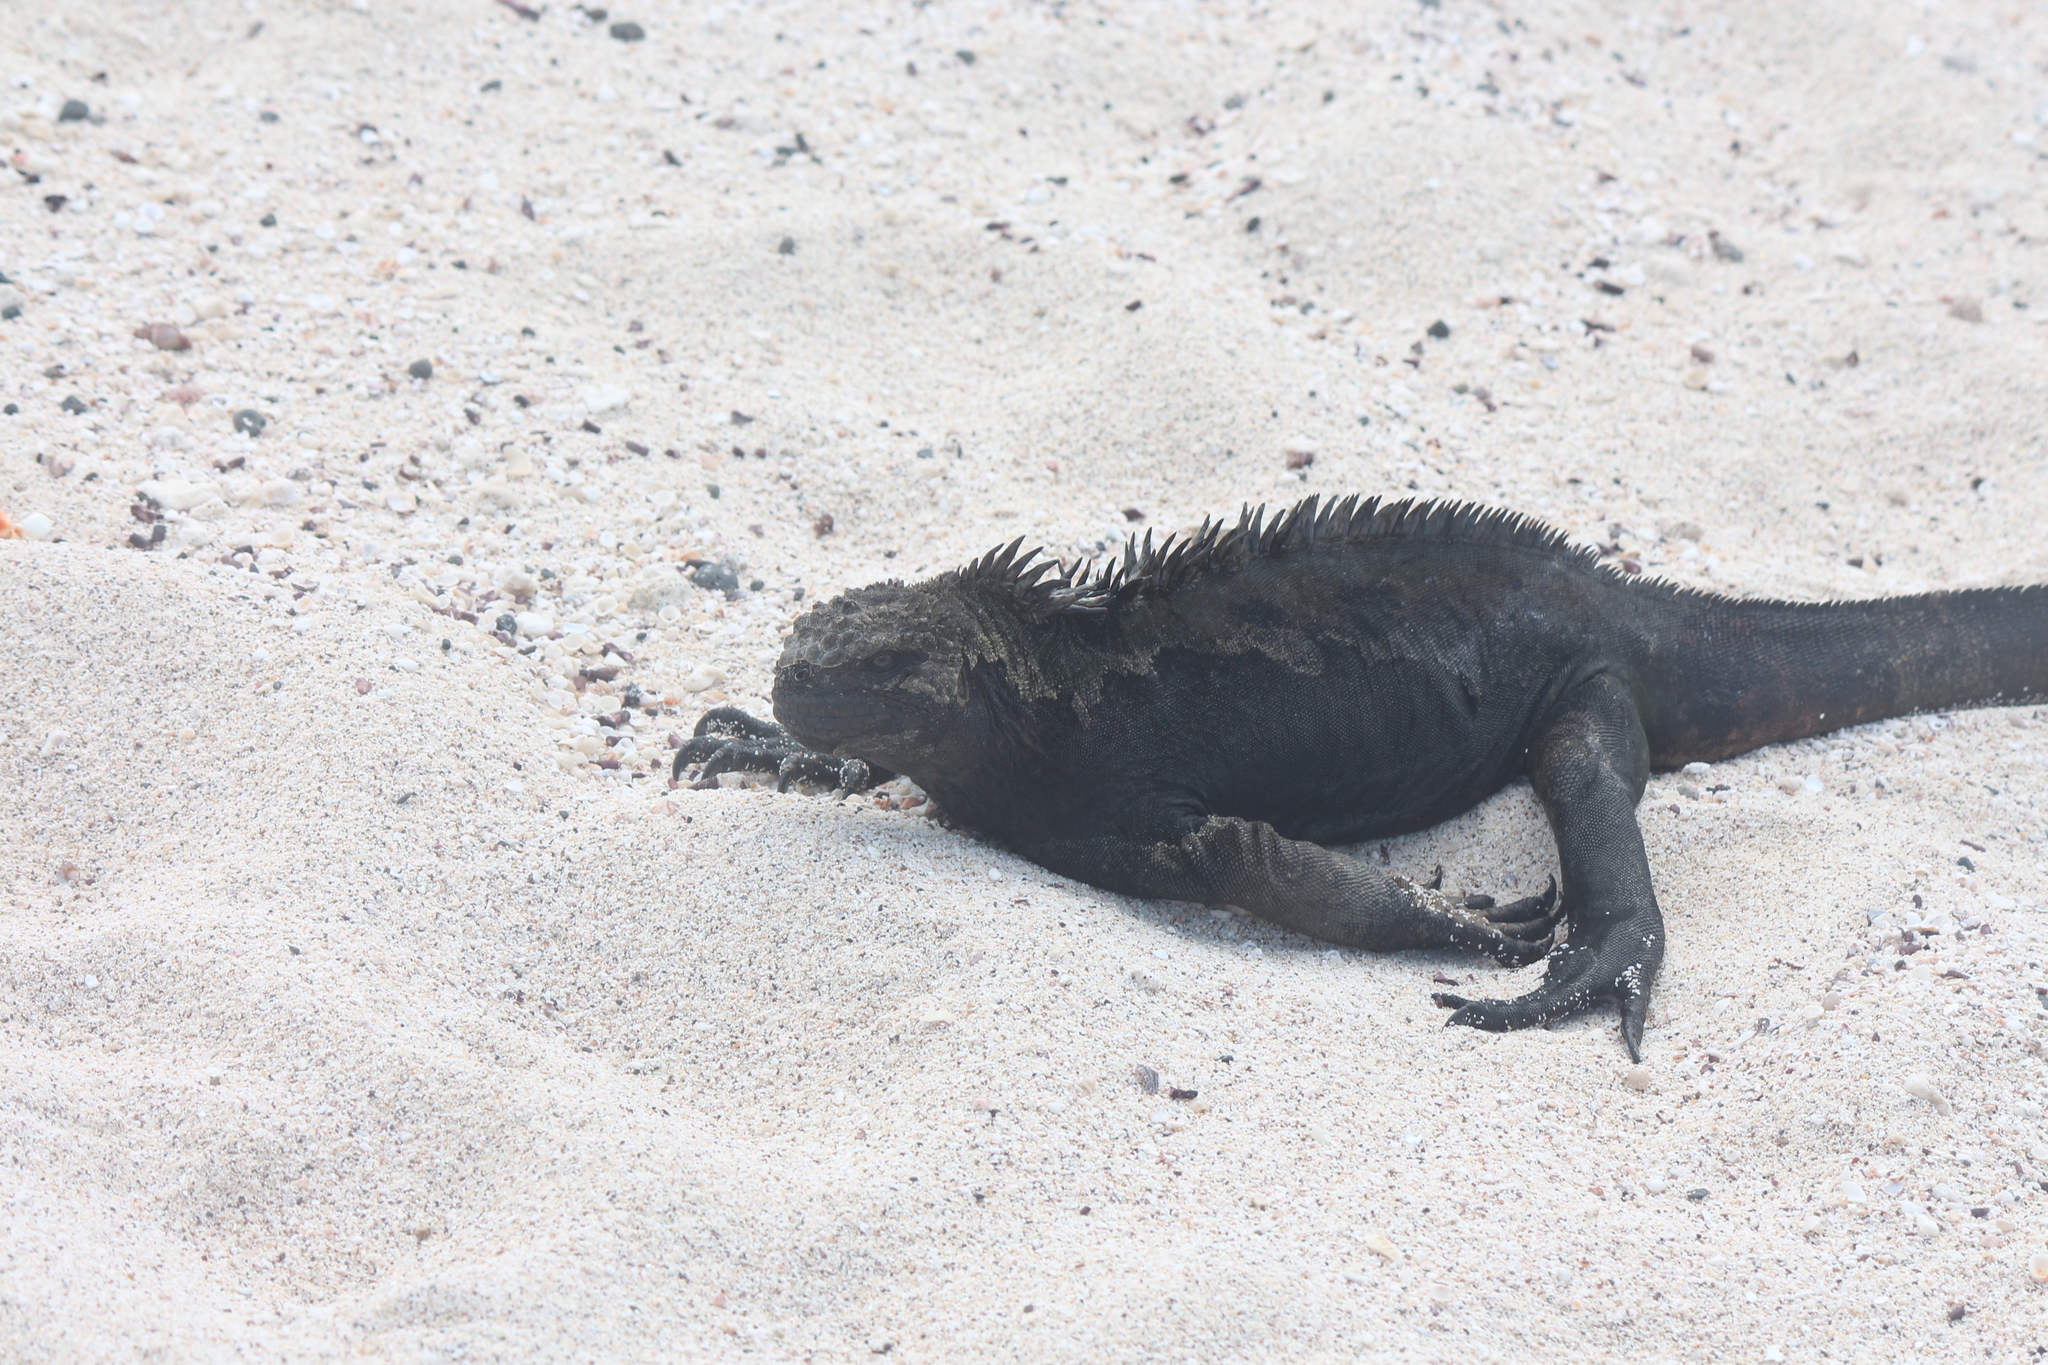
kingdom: Animalia
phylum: Chordata
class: Squamata
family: Iguanidae
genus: Amblyrhynchus
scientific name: Amblyrhynchus cristatus
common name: Marine iguana
